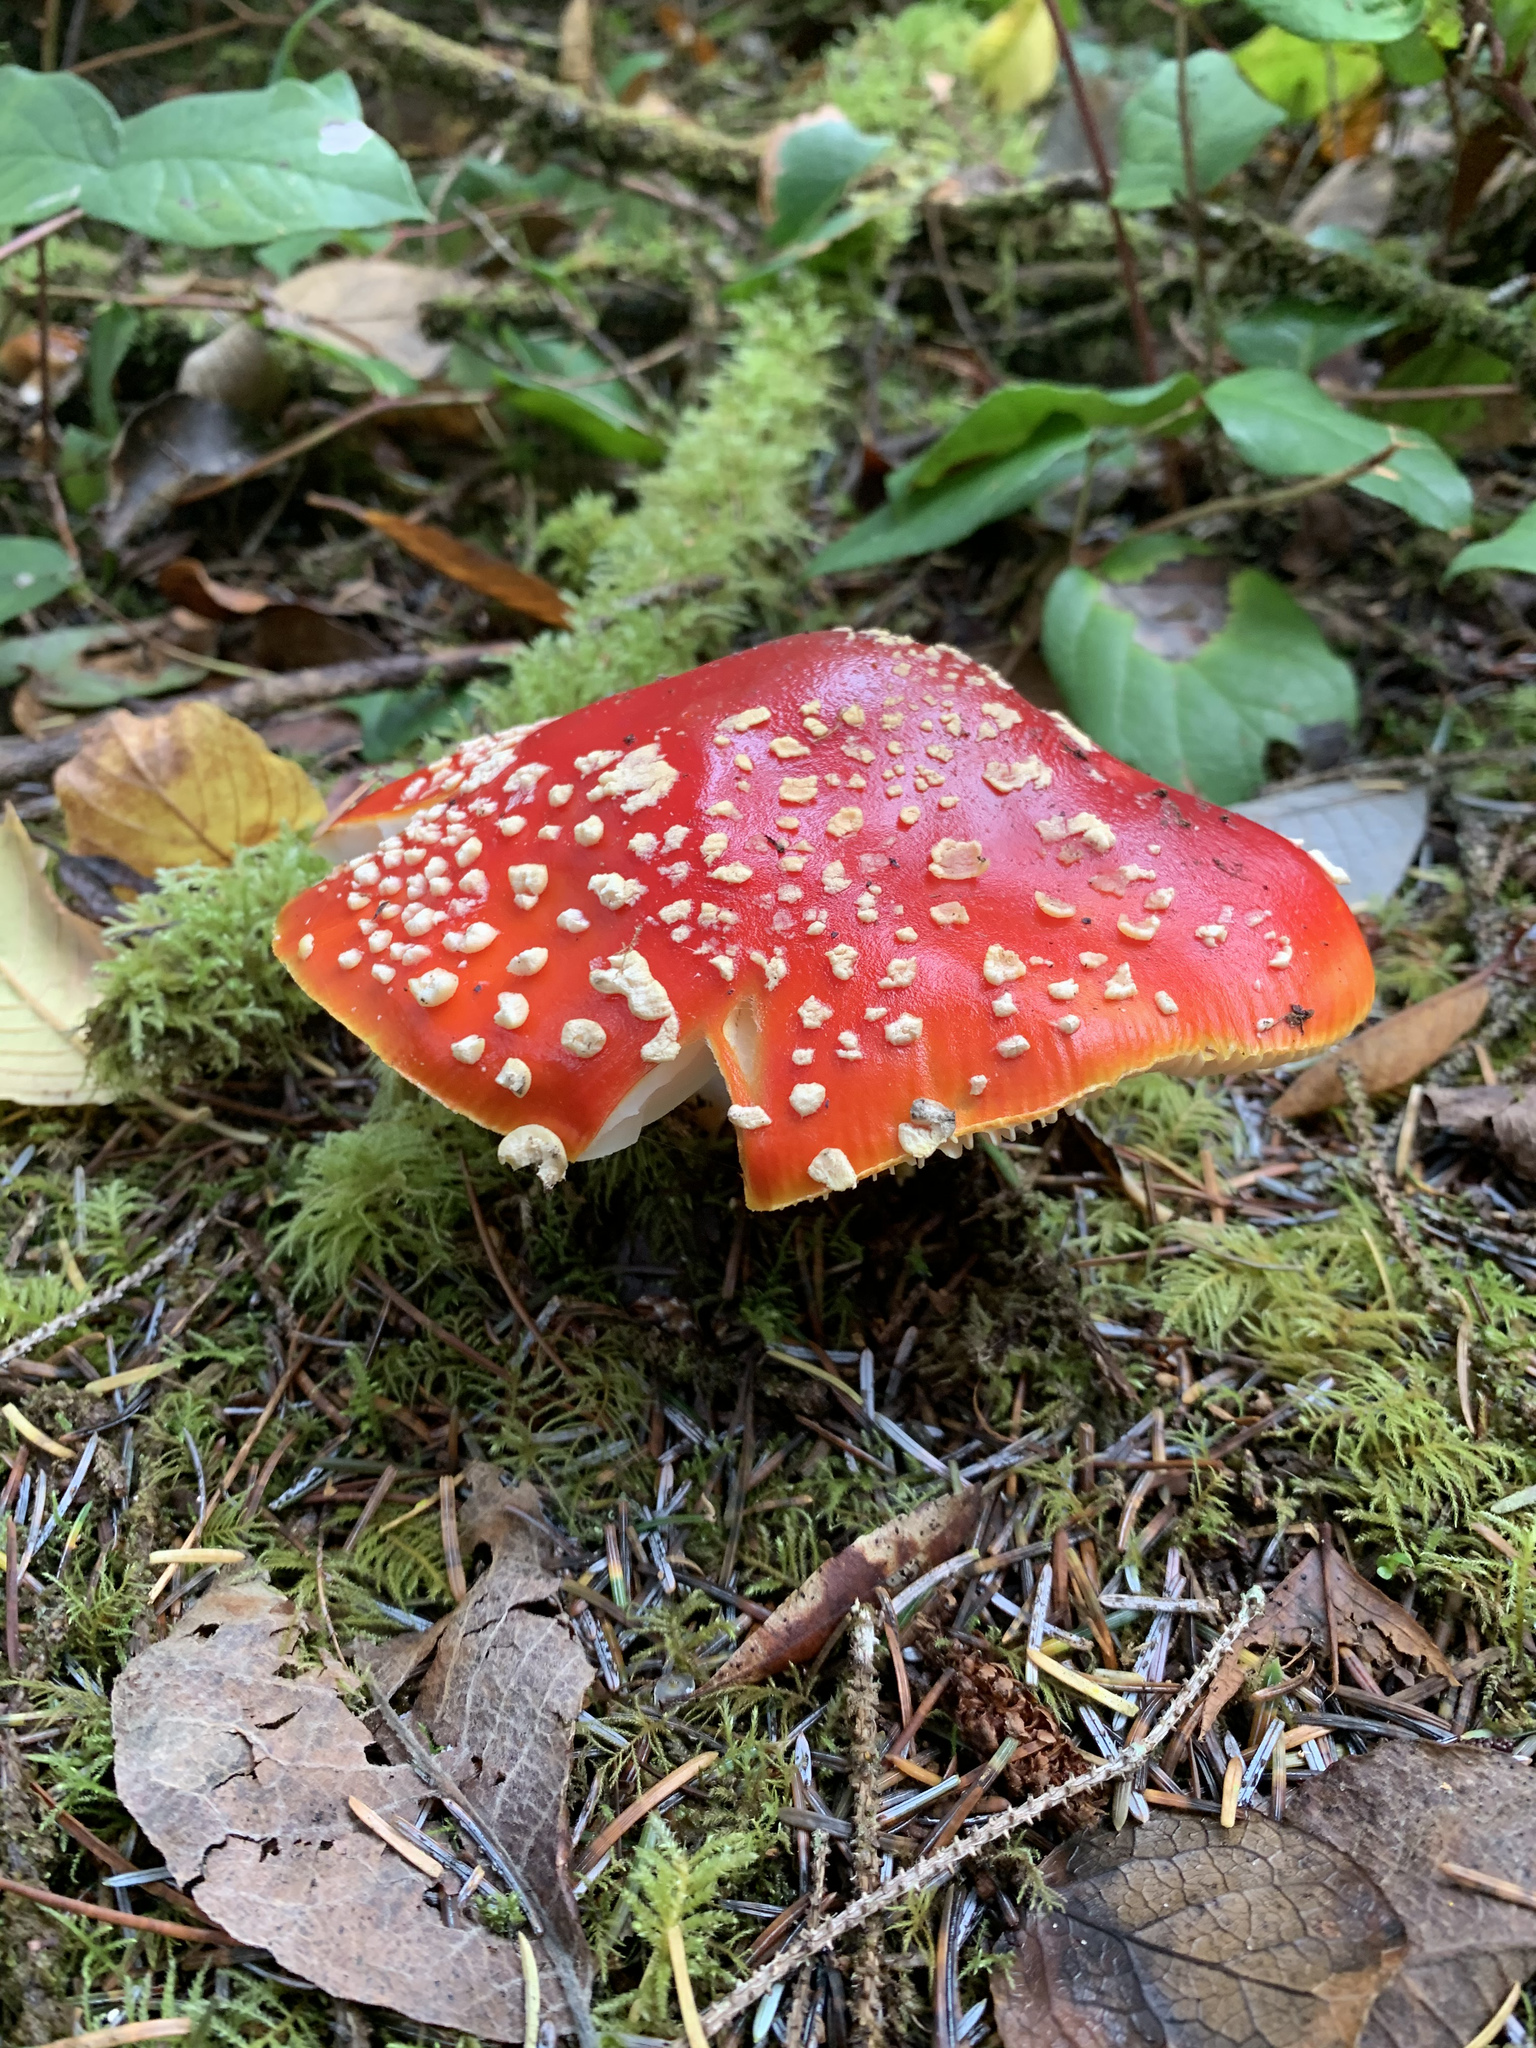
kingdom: Fungi
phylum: Basidiomycota
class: Agaricomycetes
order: Agaricales
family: Amanitaceae
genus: Amanita
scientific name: Amanita muscaria
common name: Fly agaric
